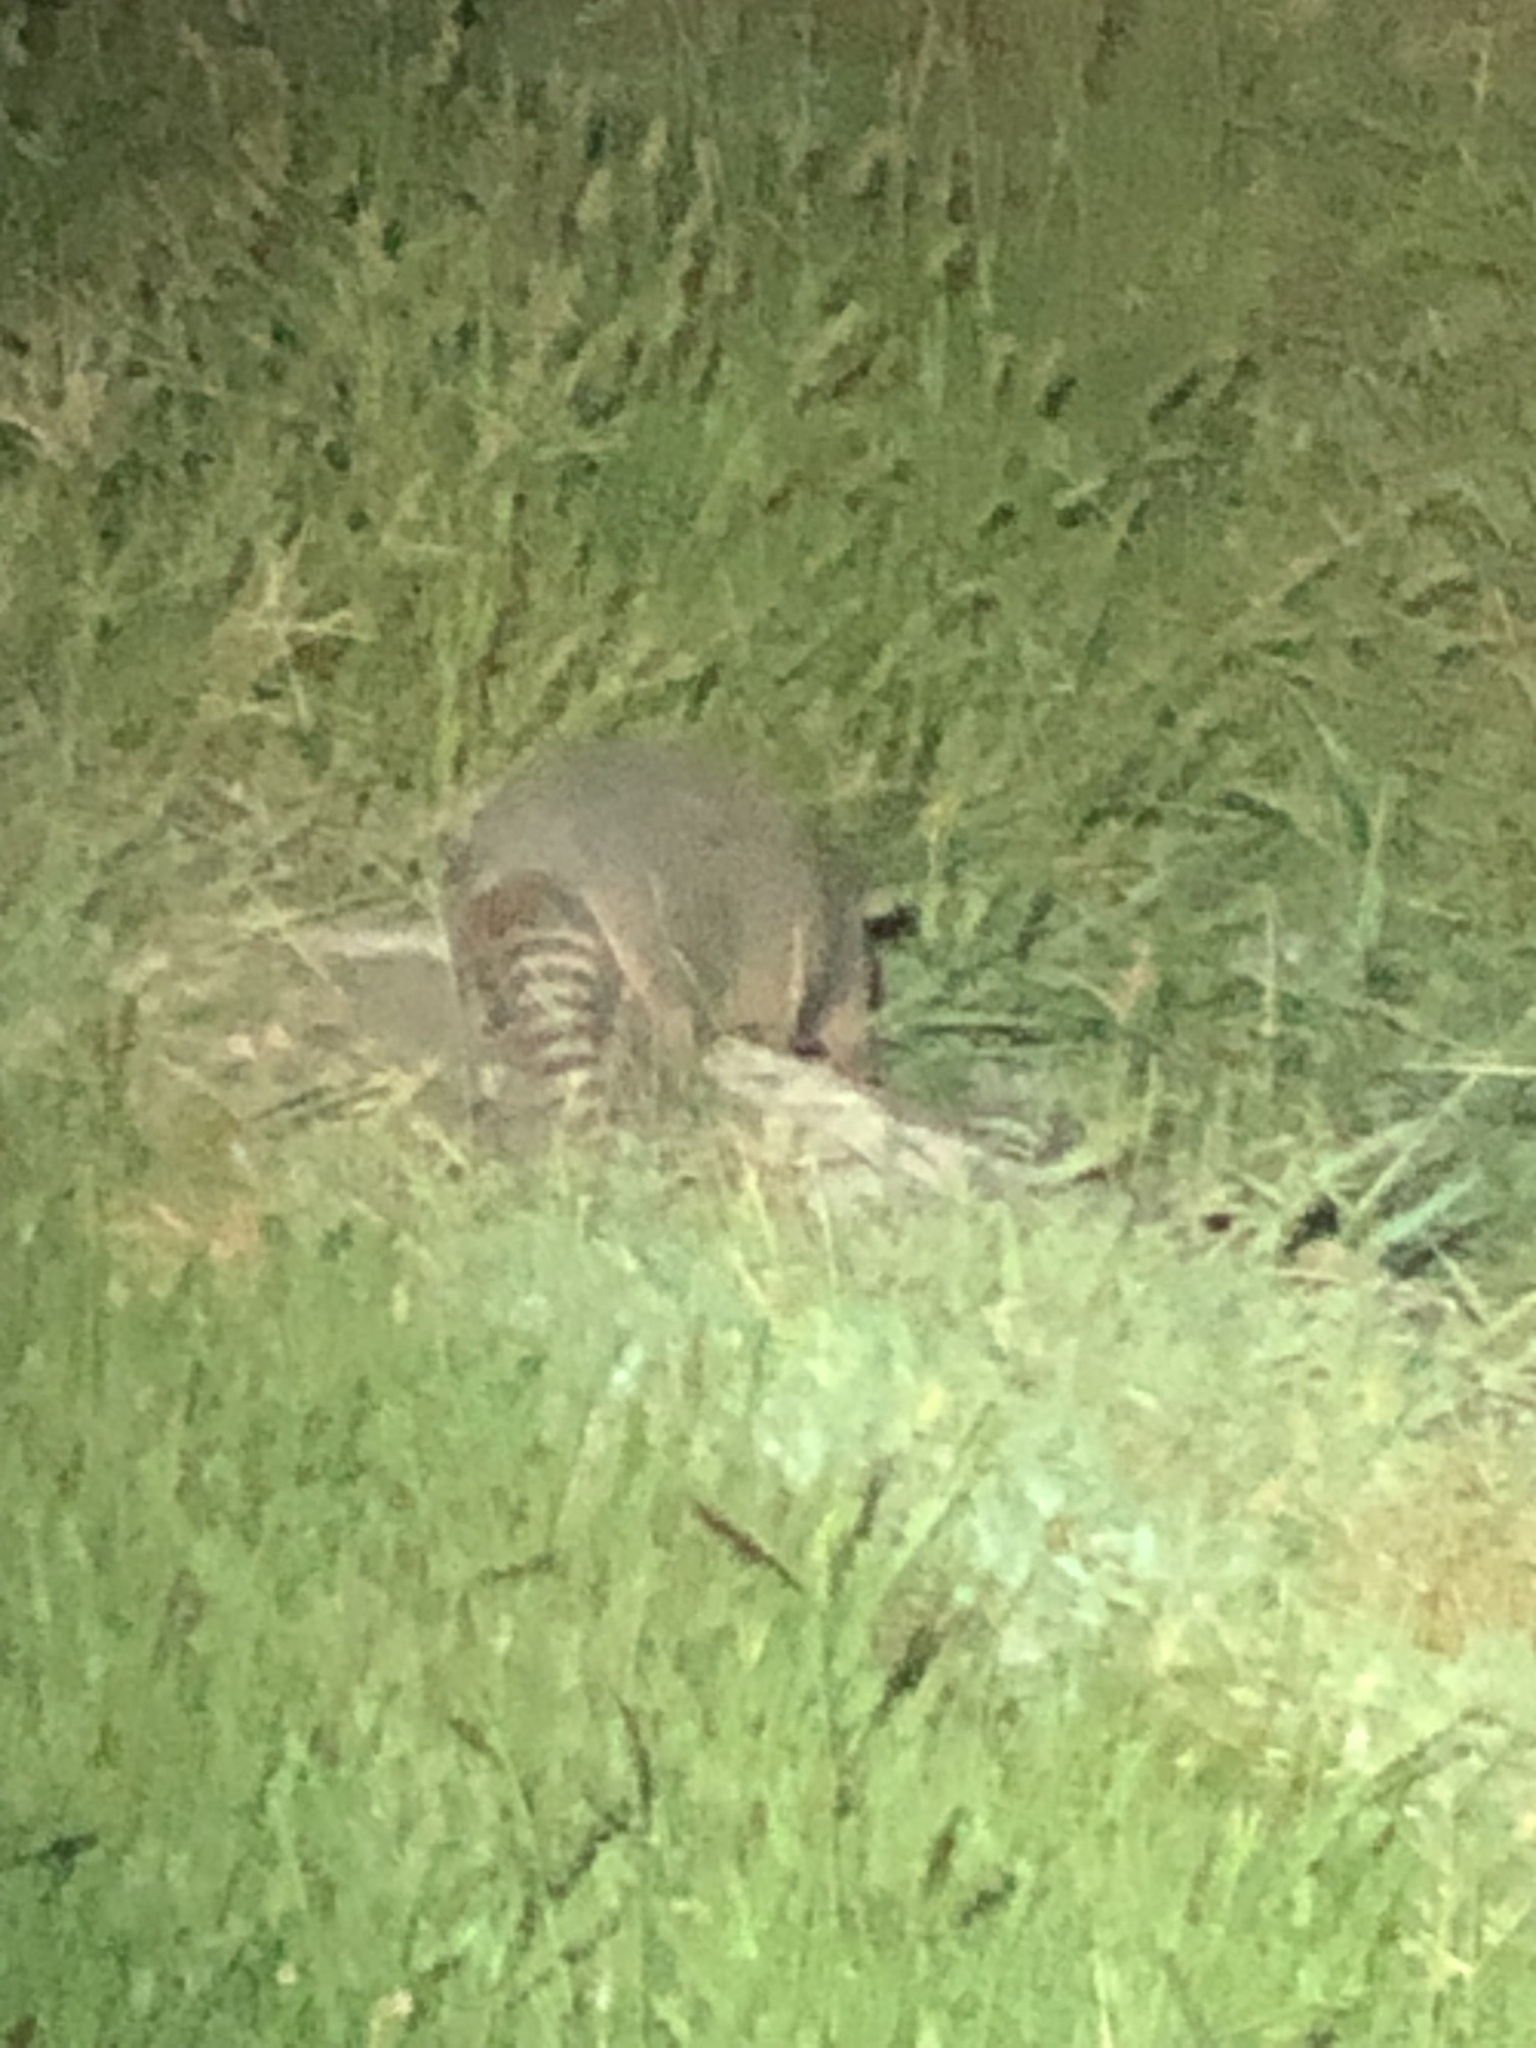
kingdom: Animalia
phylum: Chordata
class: Mammalia
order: Cingulata
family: Dasypodidae
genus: Dasypus
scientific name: Dasypus novemcinctus
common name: Nine-banded armadillo
